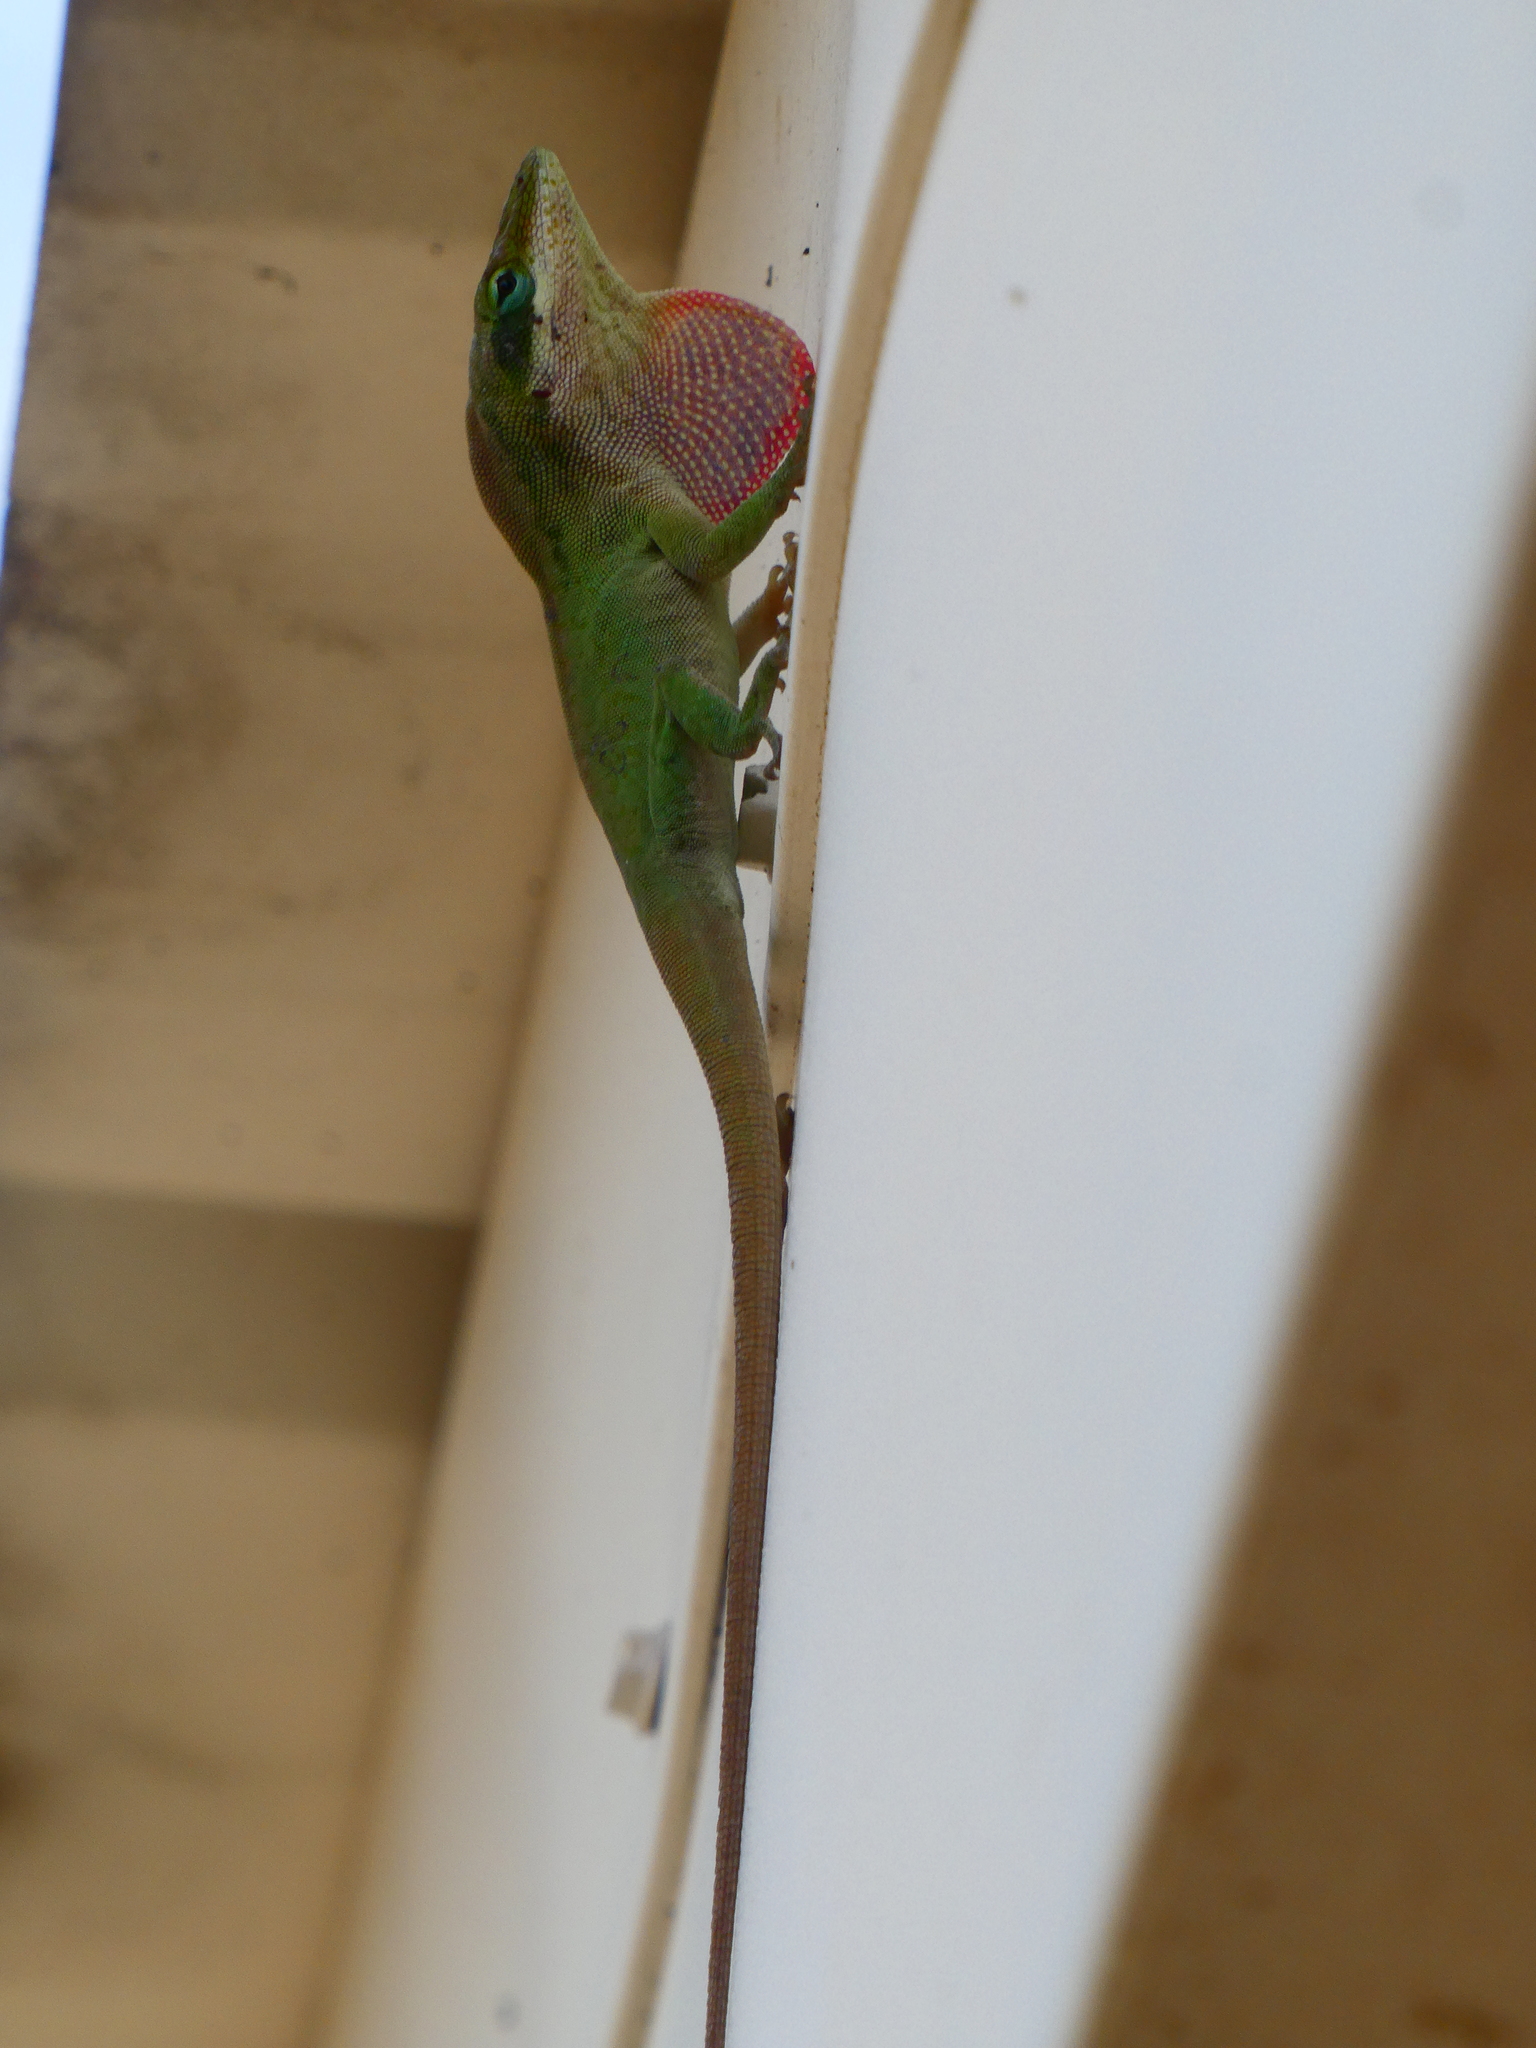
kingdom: Animalia
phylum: Chordata
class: Squamata
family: Dactyloidae
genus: Anolis
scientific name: Anolis carolinensis
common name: Green anole
